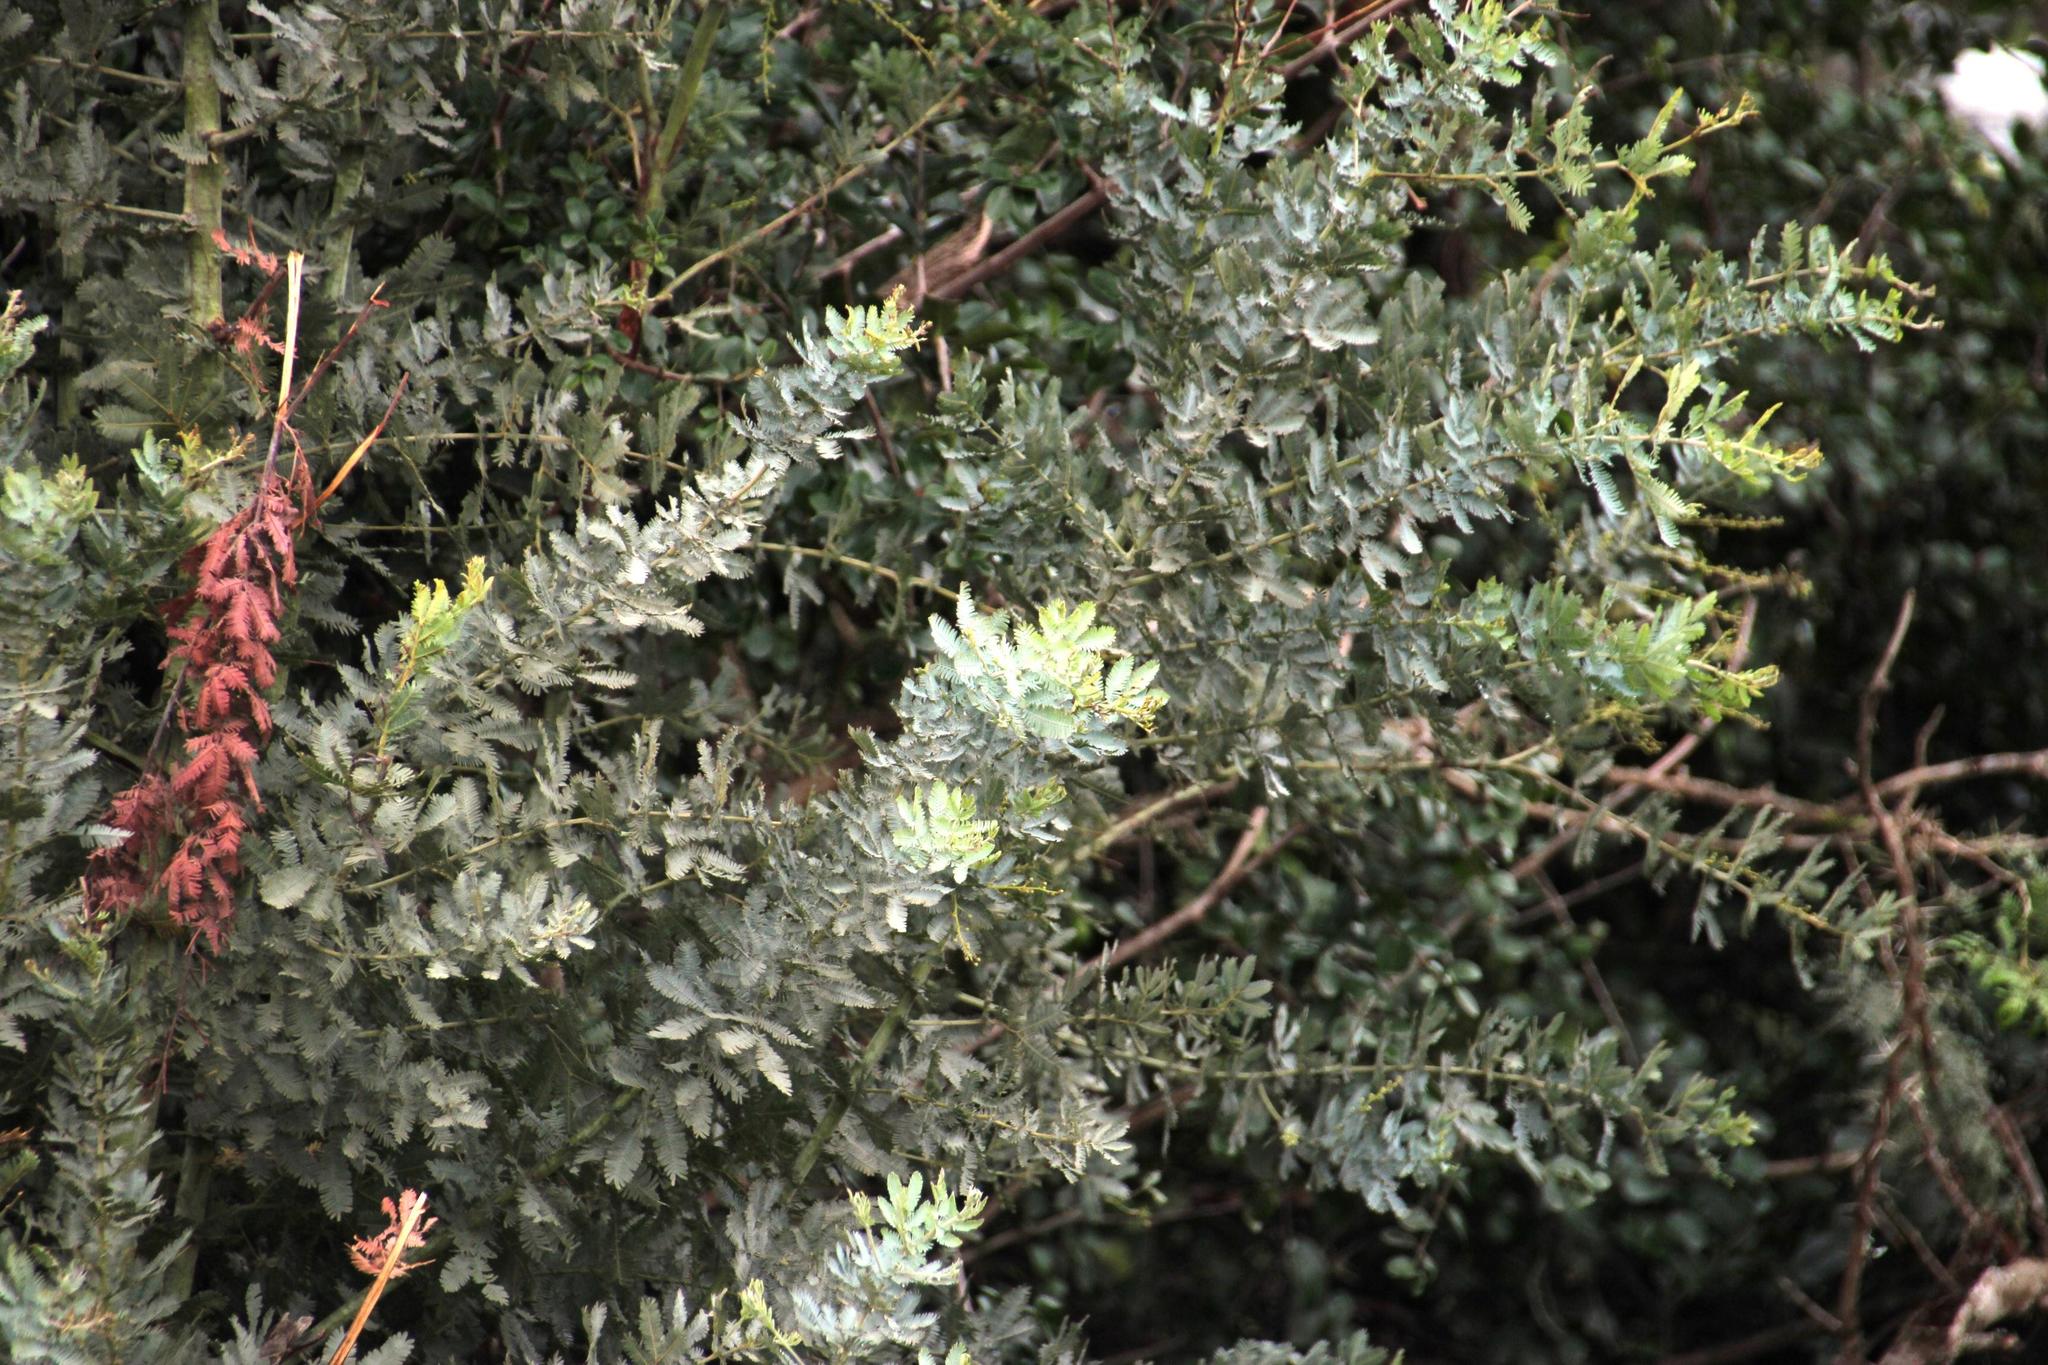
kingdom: Plantae
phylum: Tracheophyta
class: Magnoliopsida
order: Fabales
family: Fabaceae
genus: Acacia
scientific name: Acacia baileyana
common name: Cootamundra wattle
